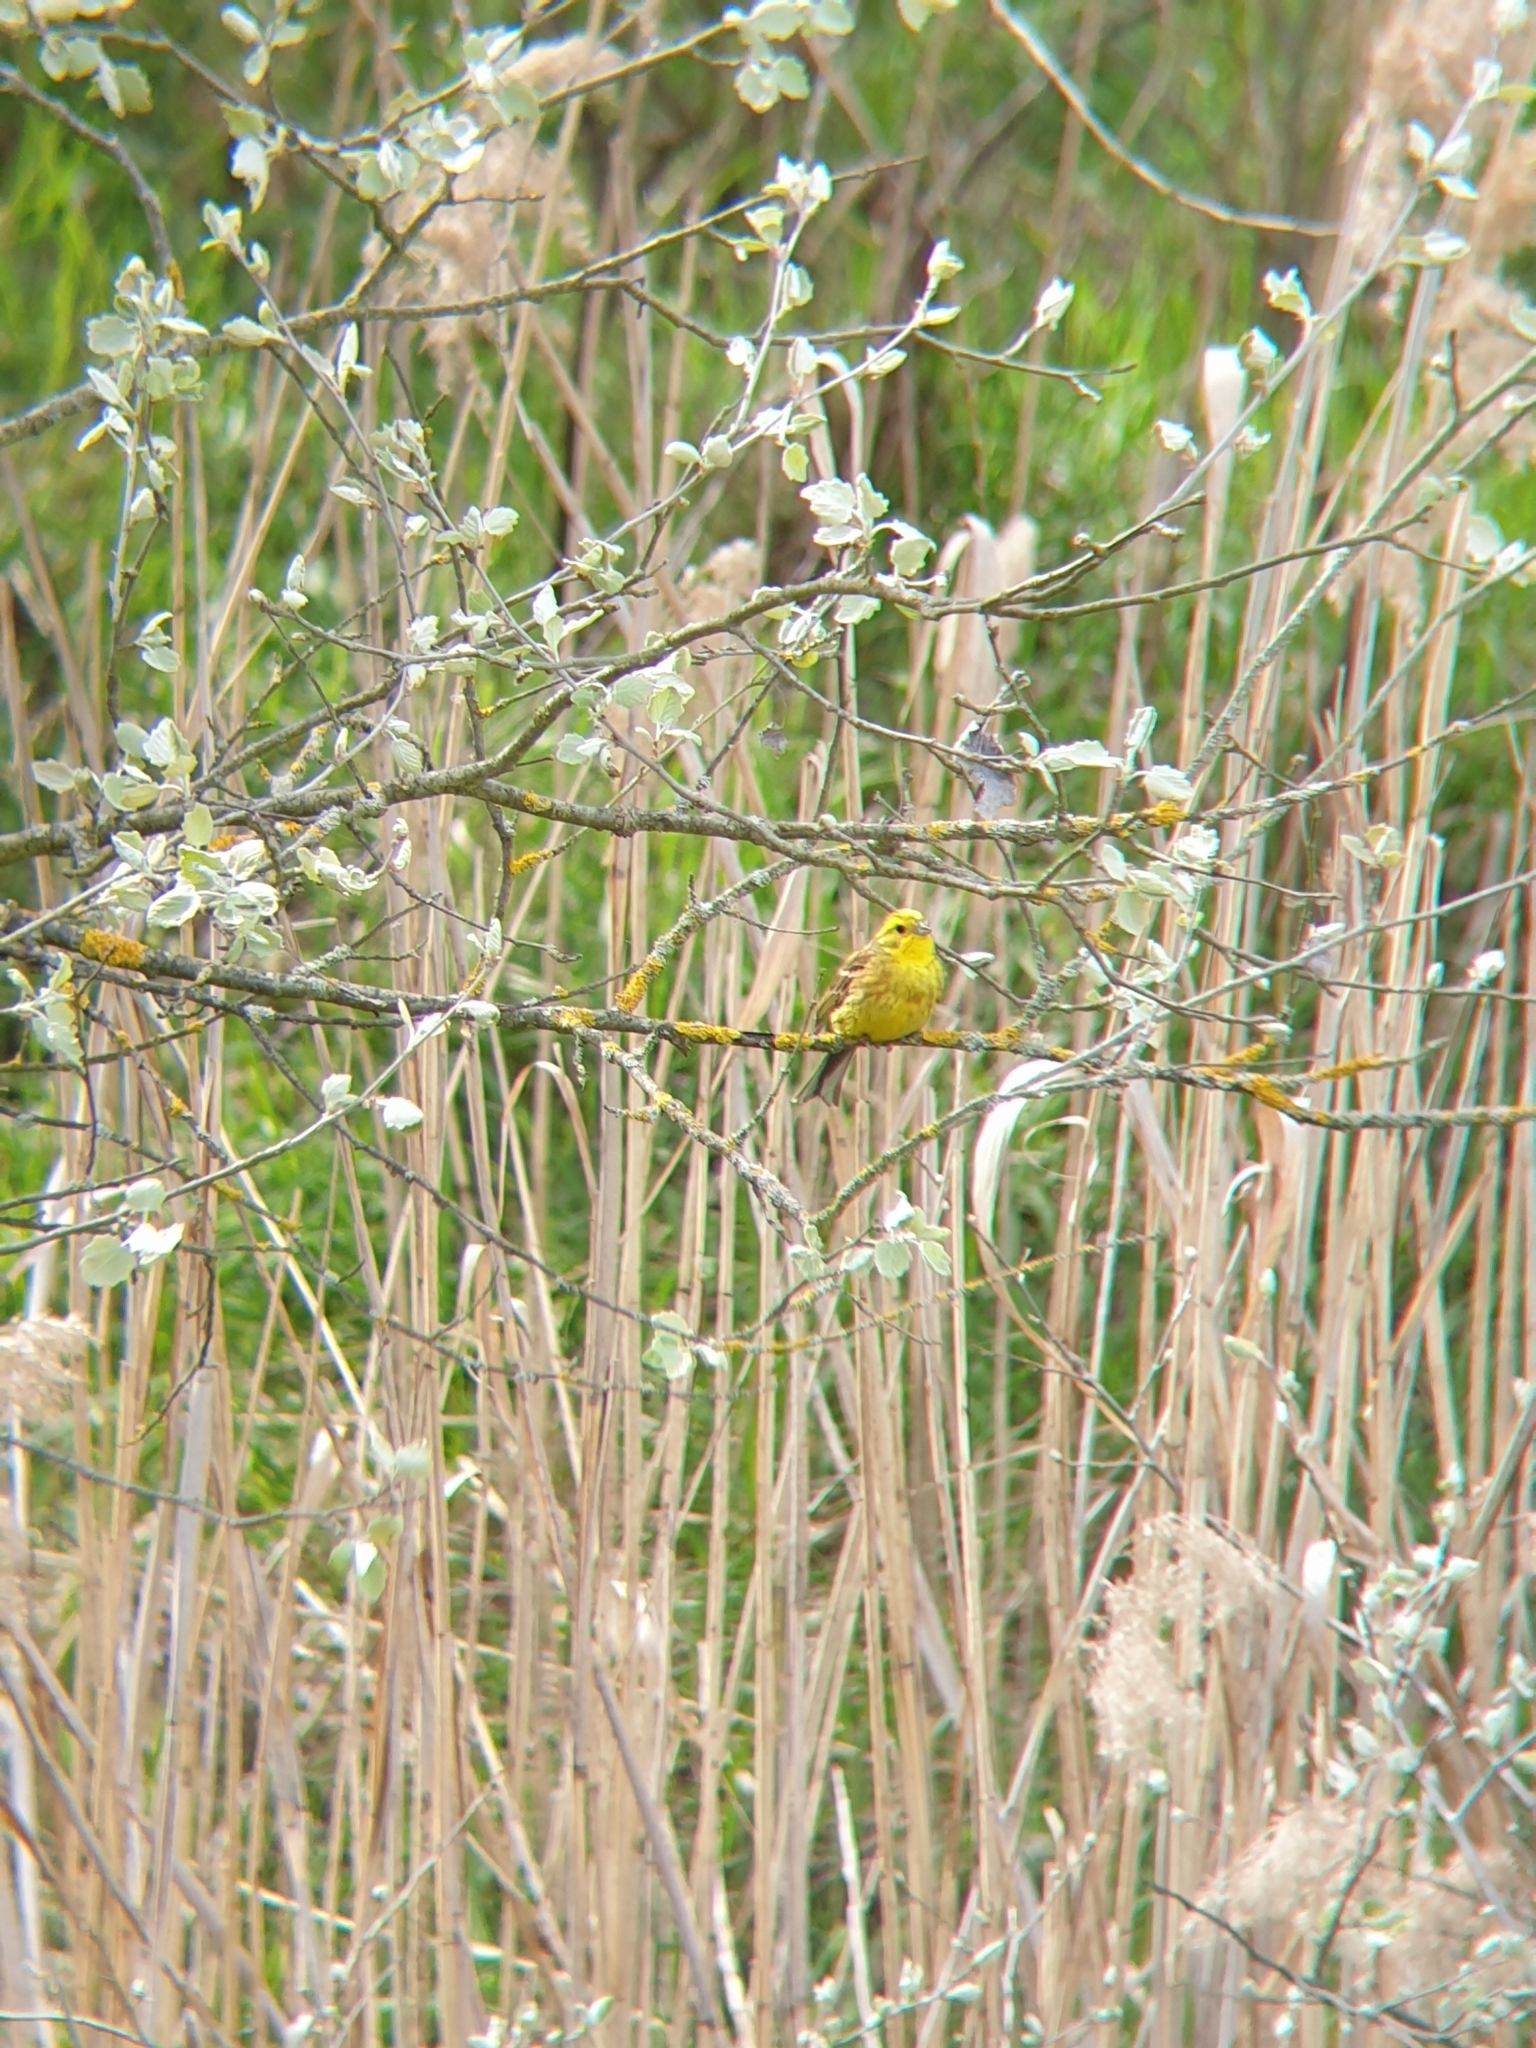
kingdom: Animalia
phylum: Chordata
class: Aves
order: Passeriformes
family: Emberizidae
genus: Emberiza
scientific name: Emberiza citrinella
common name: Yellowhammer
